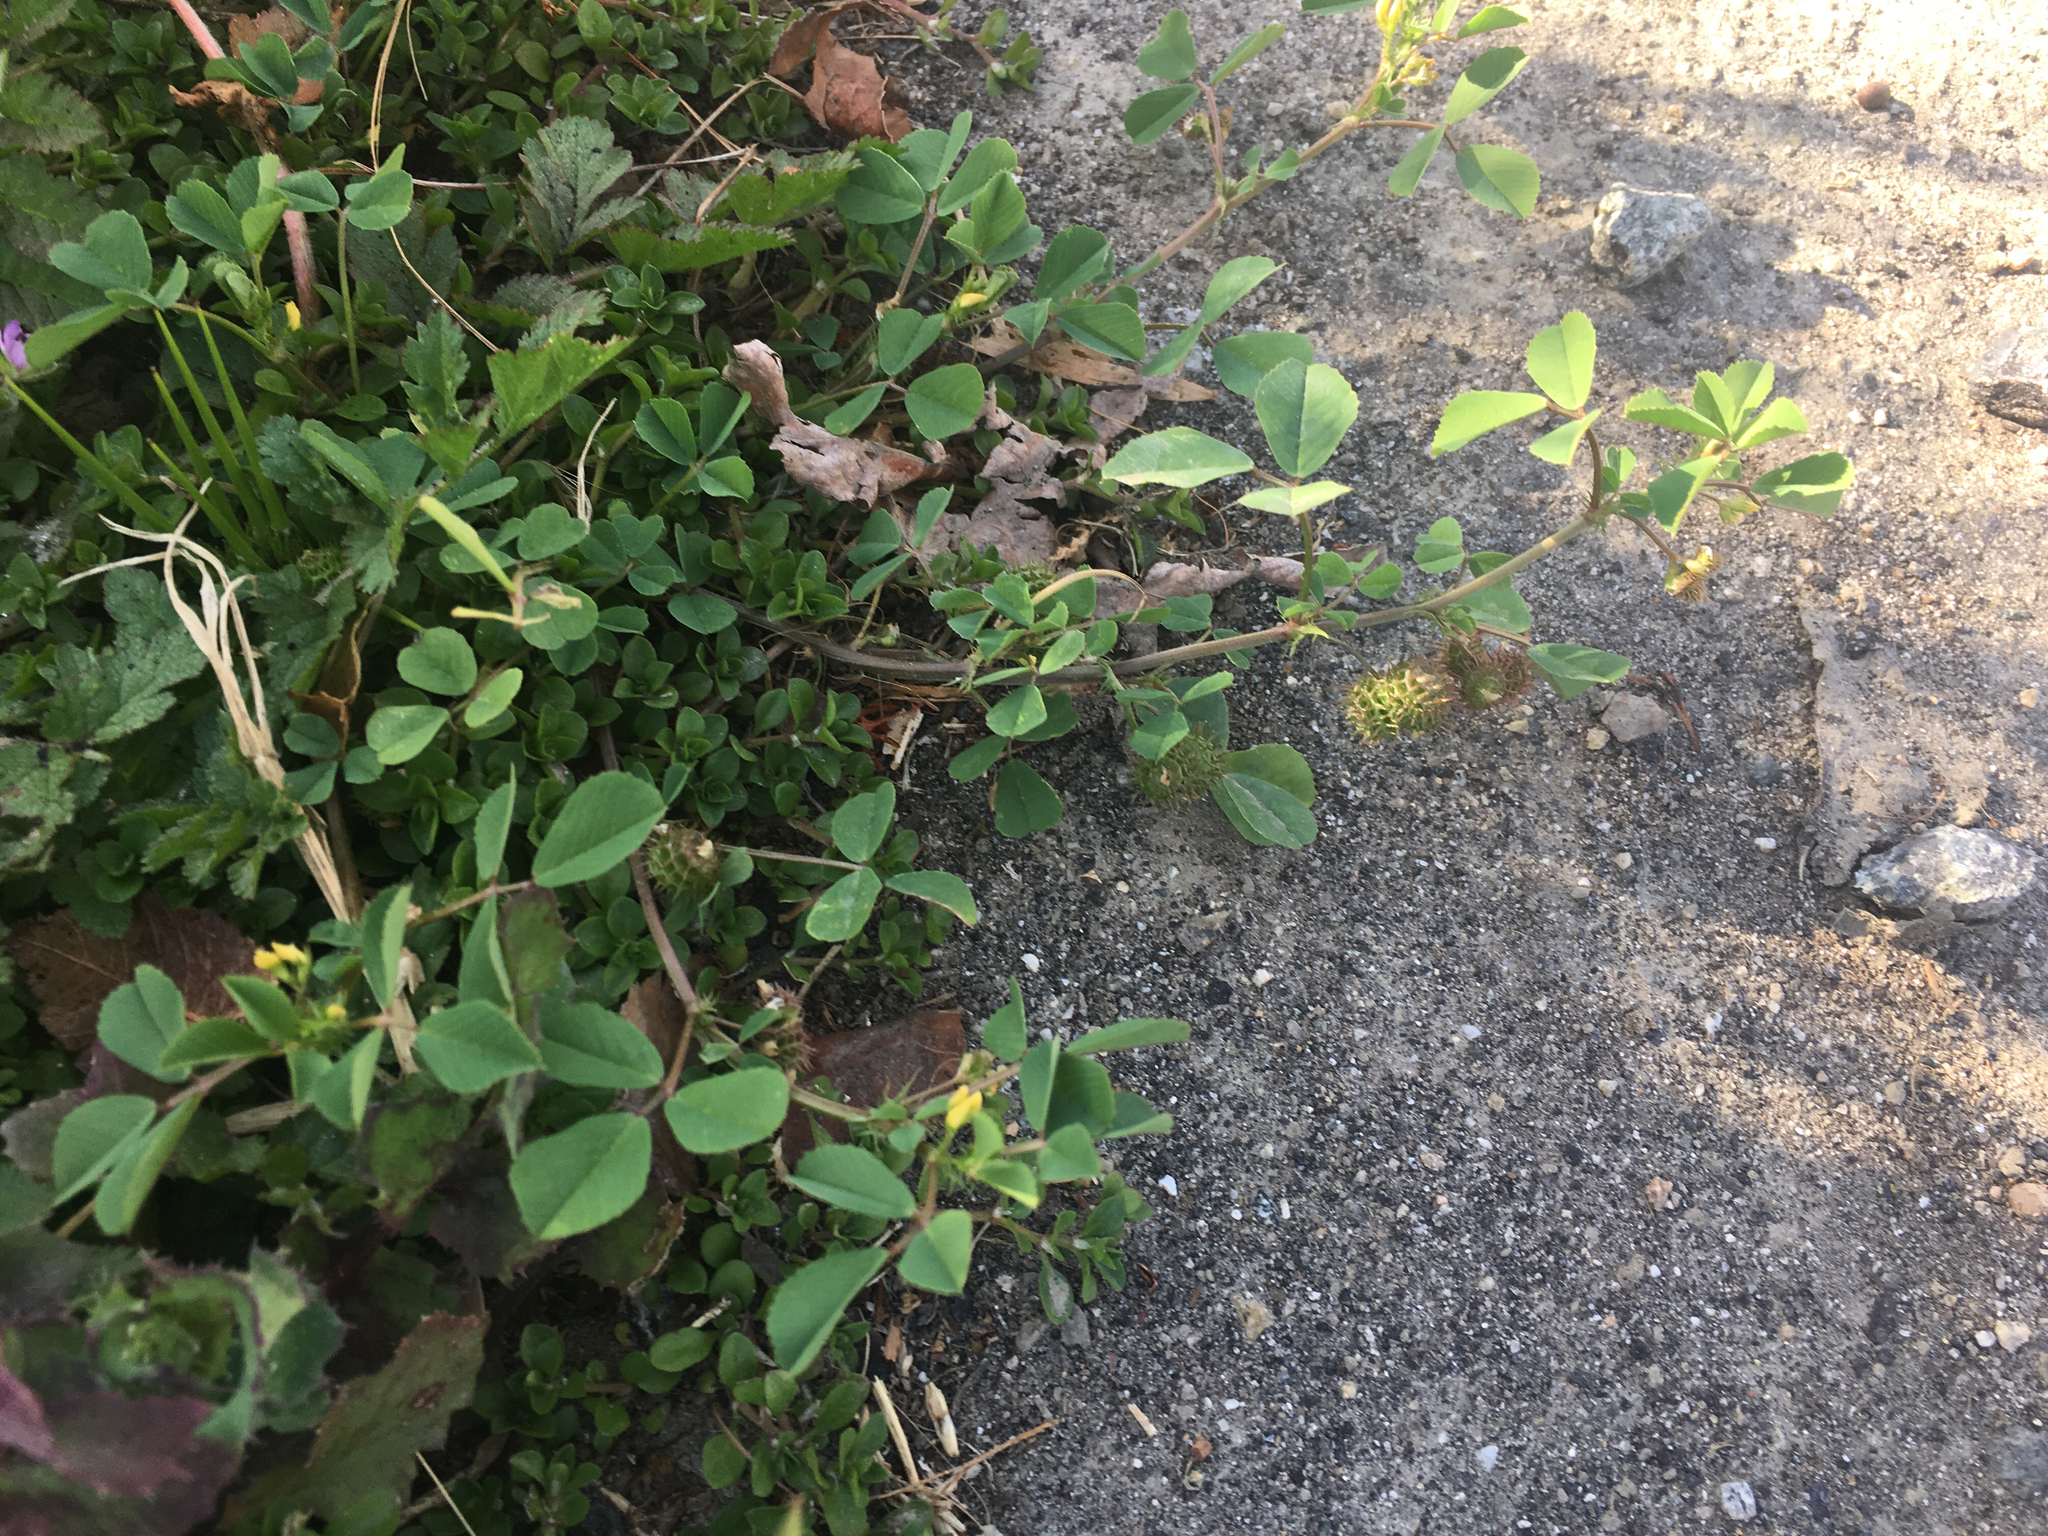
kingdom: Plantae
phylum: Tracheophyta
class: Magnoliopsida
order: Fabales
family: Fabaceae
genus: Medicago
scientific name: Medicago polymorpha
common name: Burclover
